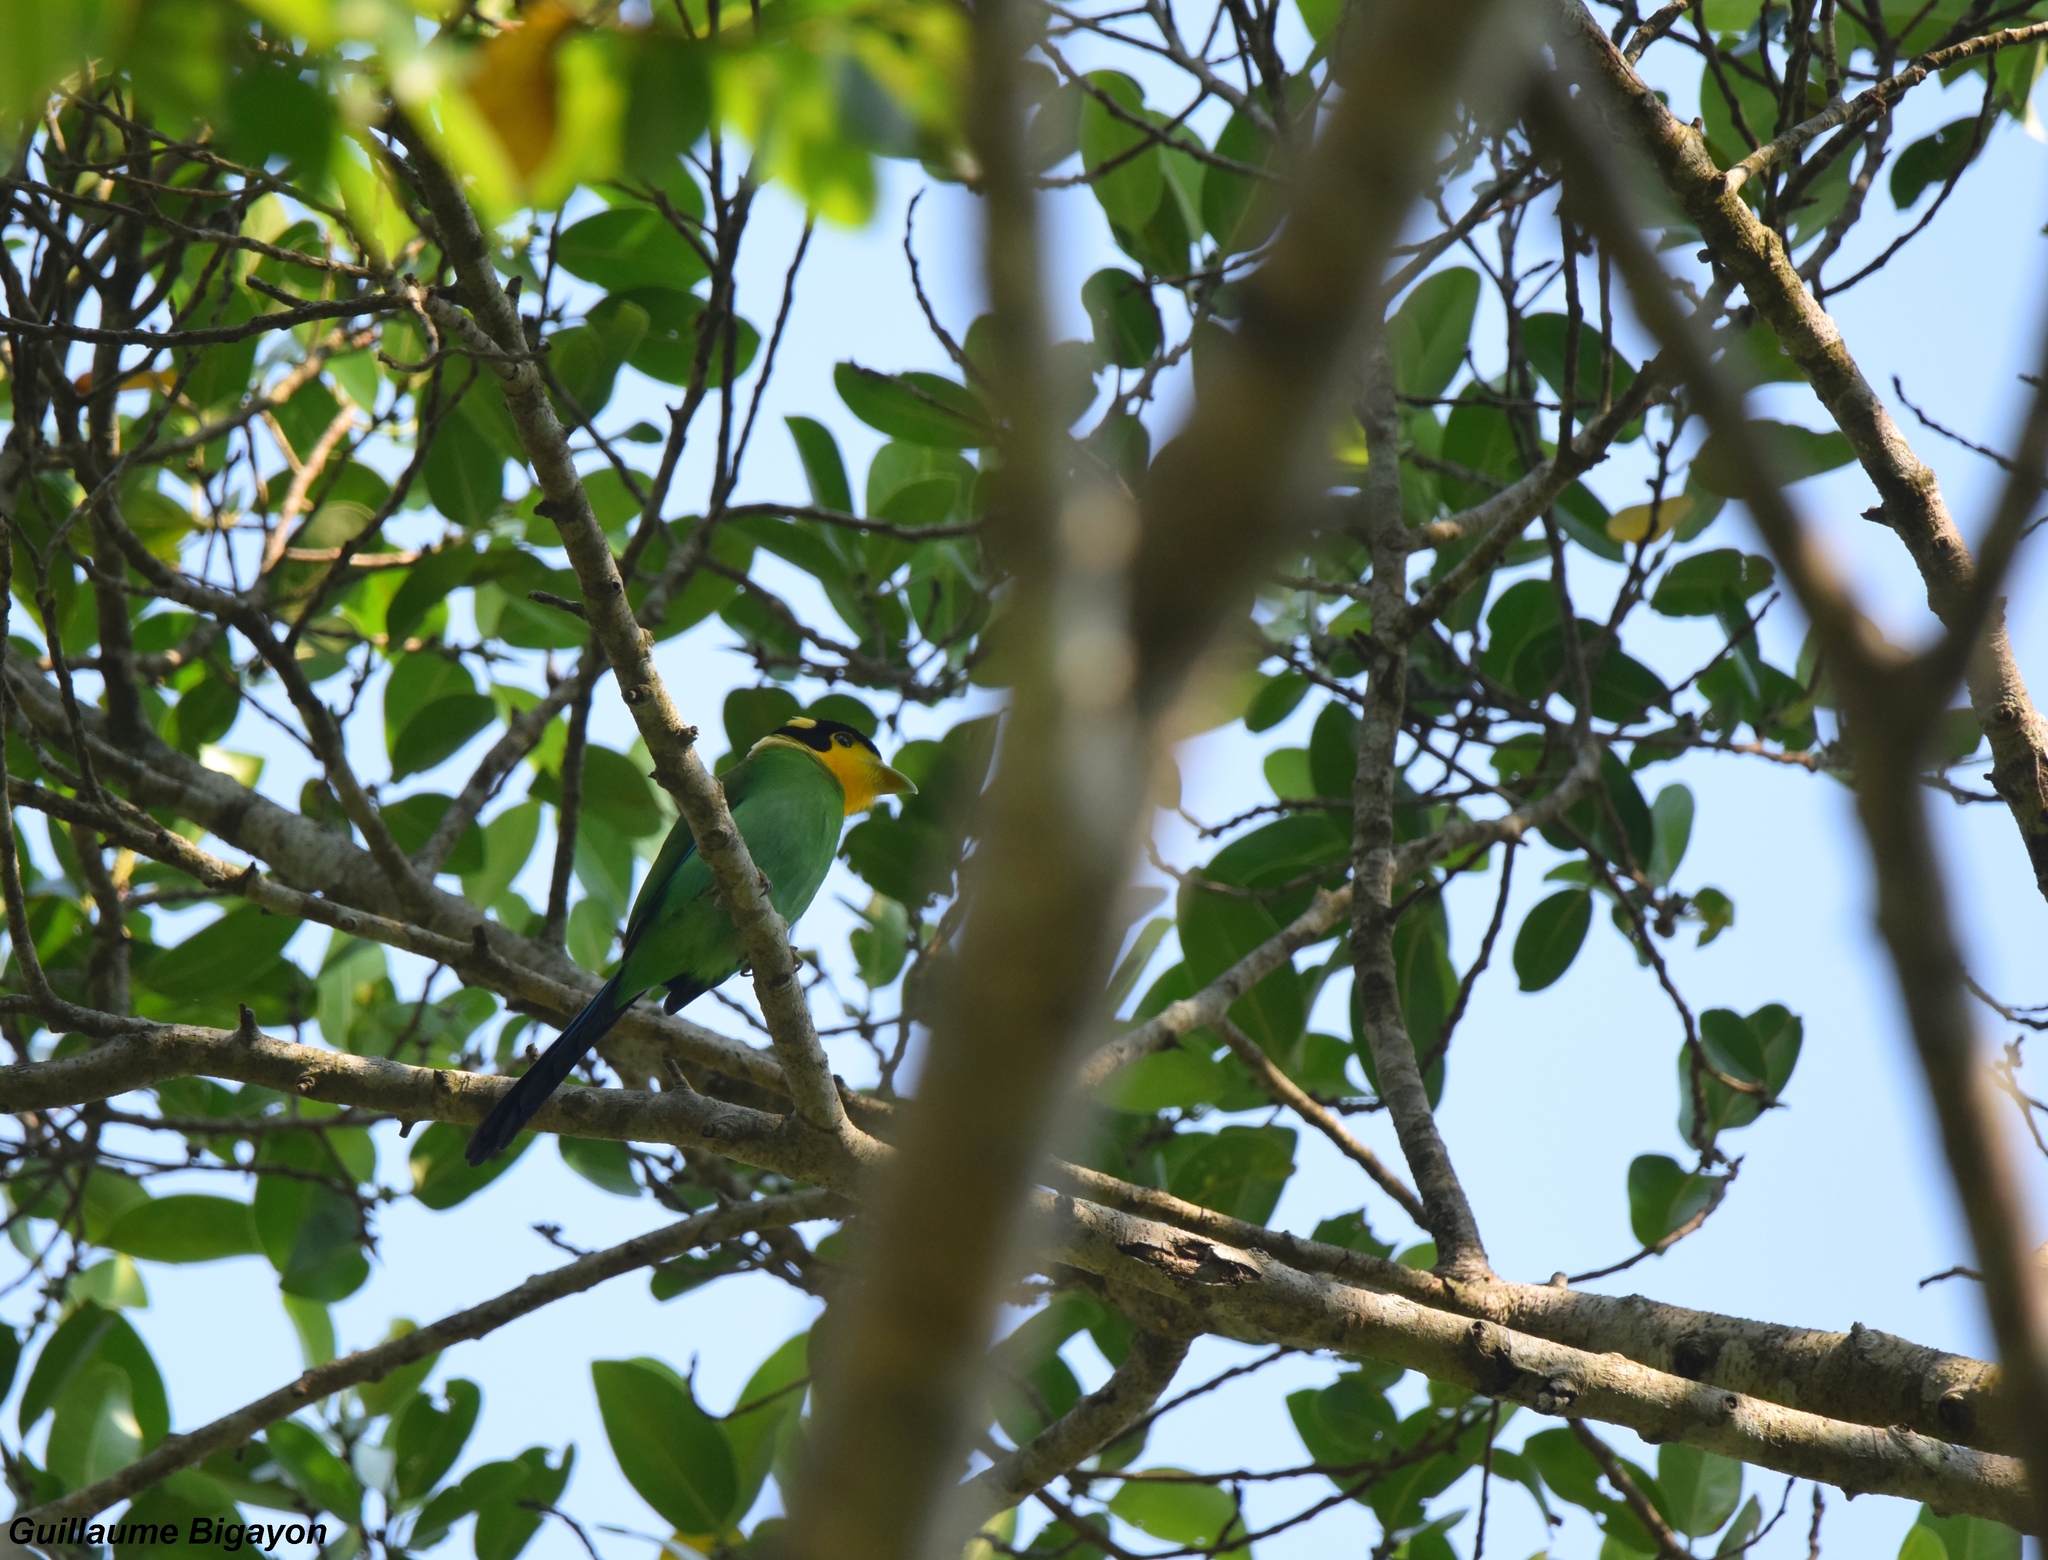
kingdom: Animalia
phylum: Chordata
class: Aves
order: Passeriformes
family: Eurylaimidae
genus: Psarisomus
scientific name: Psarisomus dalhousiae
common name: Long-tailed broadbill
